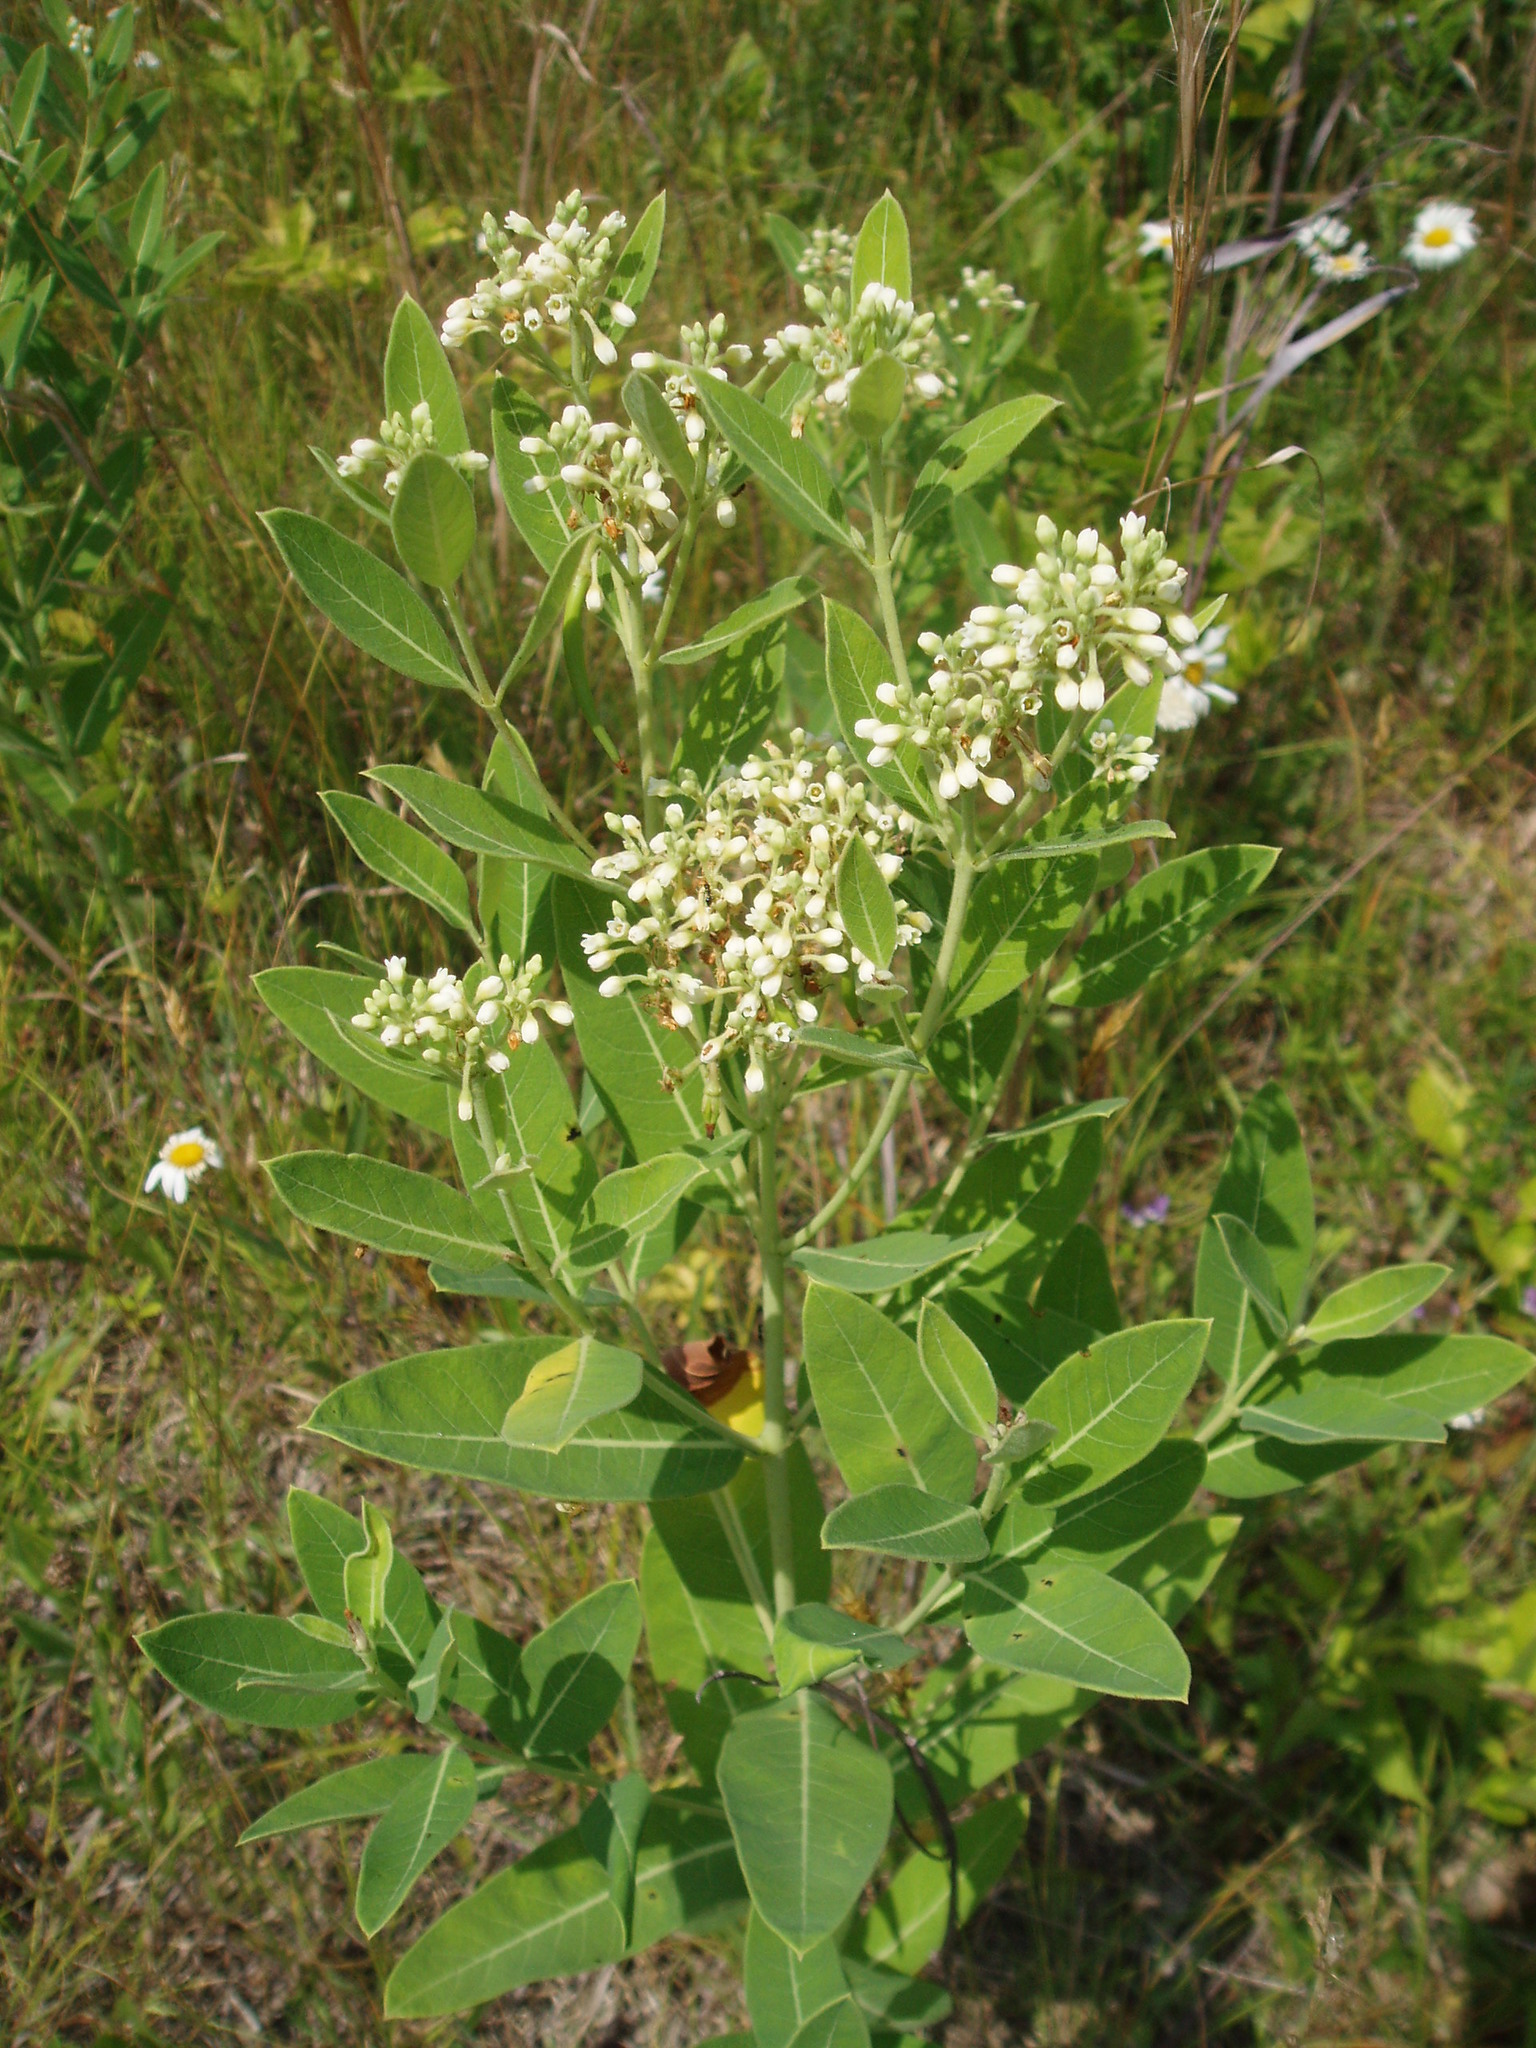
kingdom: Plantae
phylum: Tracheophyta
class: Magnoliopsida
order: Gentianales
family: Apocynaceae
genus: Apocynum
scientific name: Apocynum cannabinum
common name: Hemp dogbane
